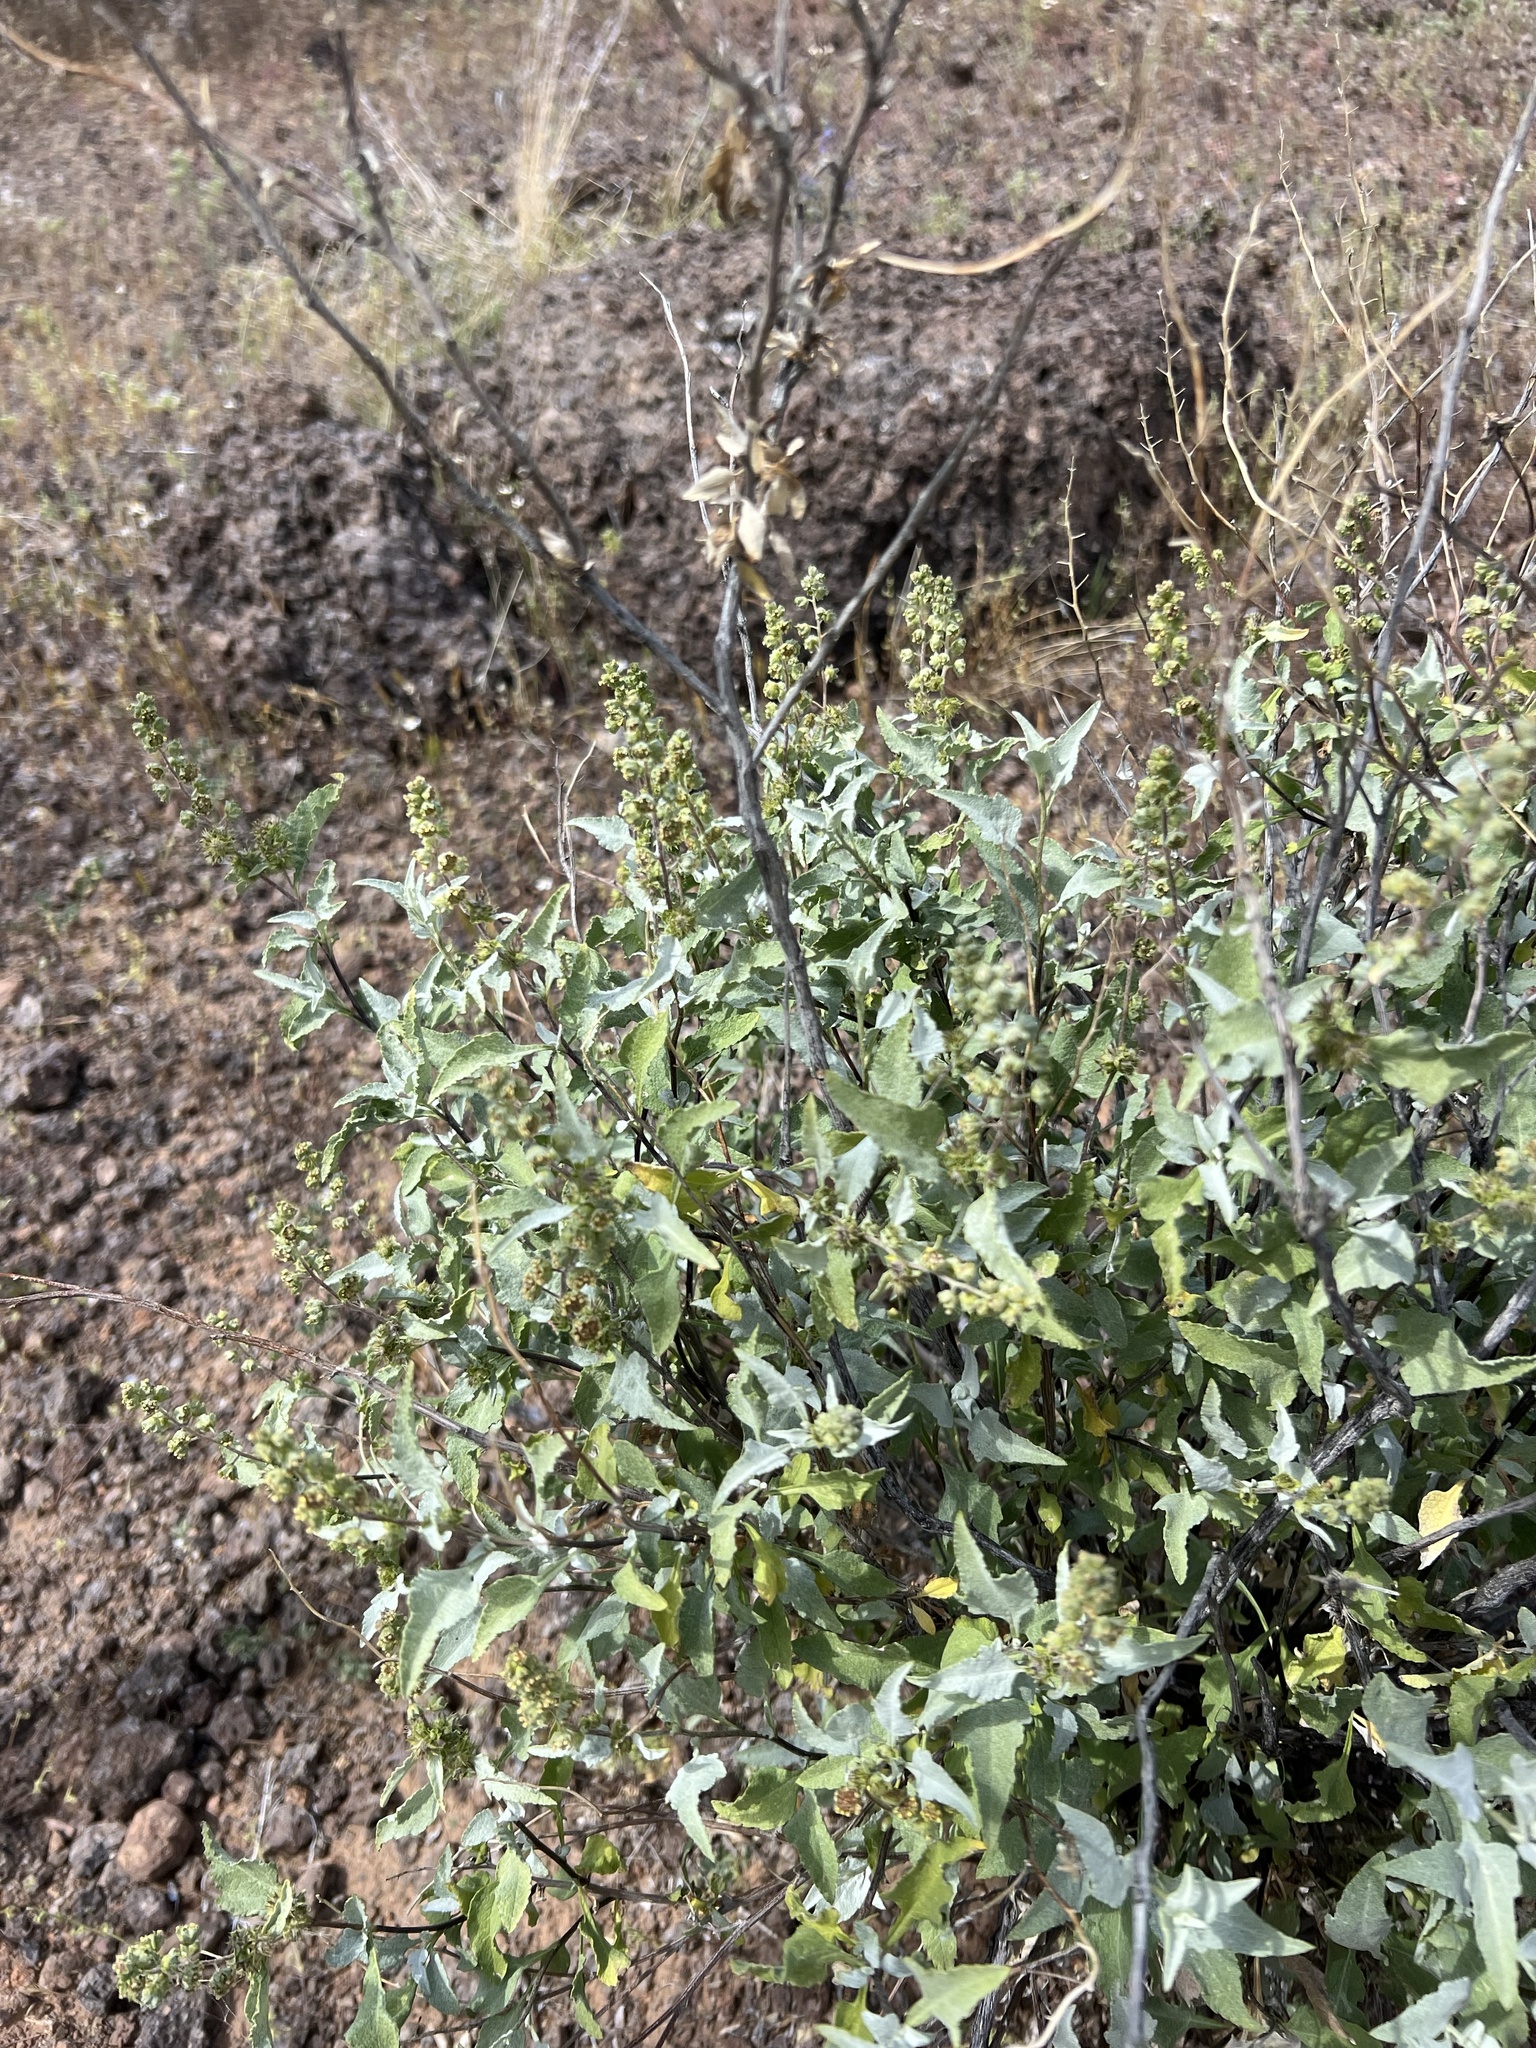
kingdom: Plantae
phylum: Tracheophyta
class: Magnoliopsida
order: Asterales
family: Asteraceae
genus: Ambrosia
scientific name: Ambrosia deltoidea
